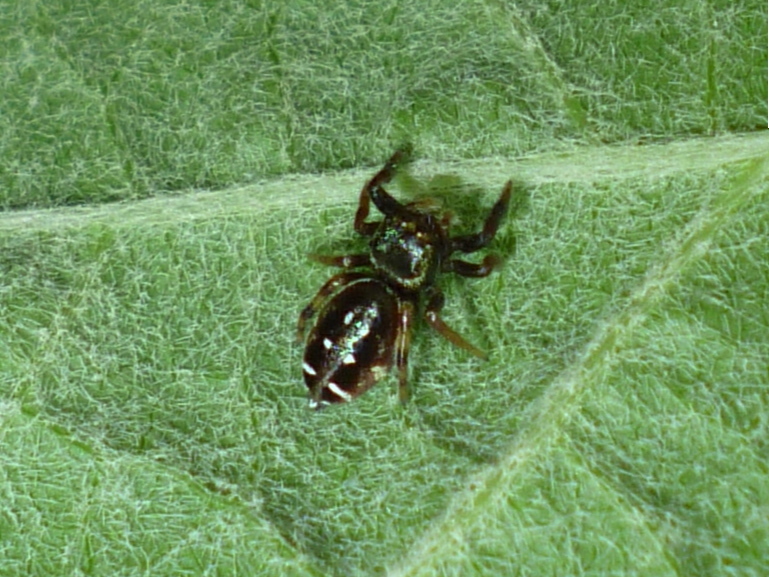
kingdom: Animalia
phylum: Arthropoda
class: Arachnida
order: Araneae
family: Salticidae
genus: Paraphidippus
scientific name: Paraphidippus aurantius
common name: Jumping spiders
